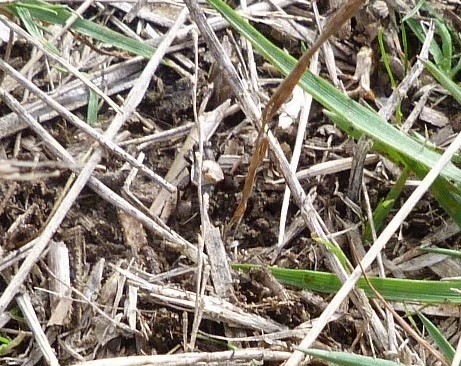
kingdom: Animalia
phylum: Arthropoda
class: Insecta
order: Orthoptera
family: Trigonidiidae
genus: Bobilla
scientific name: Bobilla
